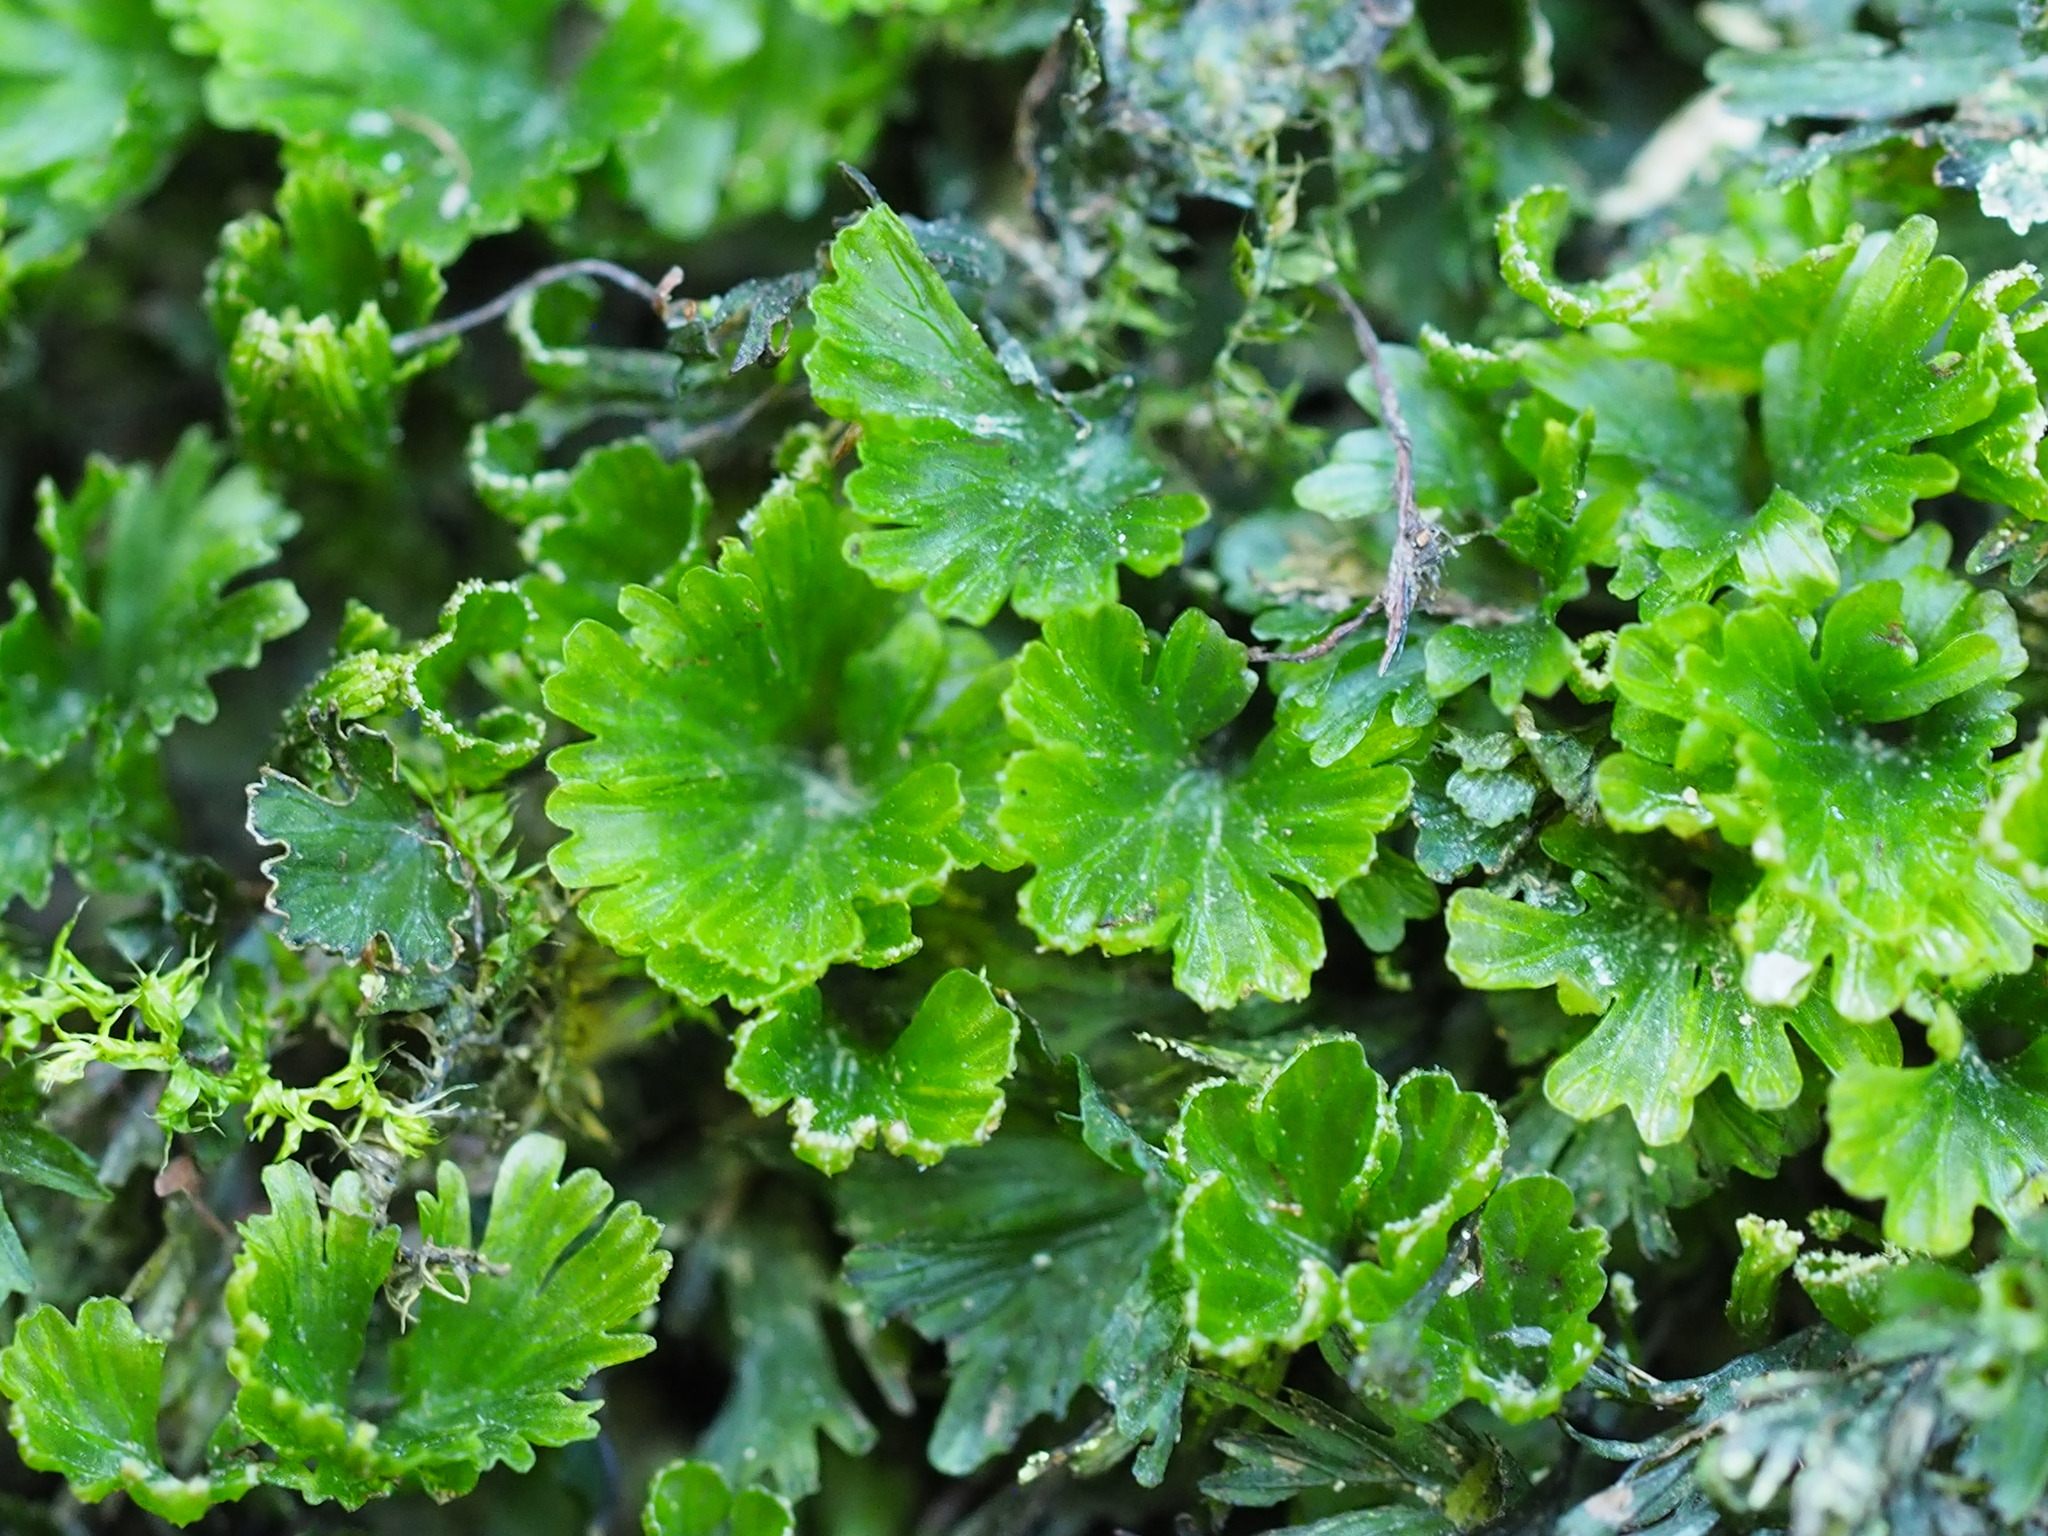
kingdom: Plantae
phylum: Tracheophyta
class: Polypodiopsida
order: Hymenophyllales
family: Hymenophyllaceae
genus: Crepidomanes
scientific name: Crepidomanes parvulum
